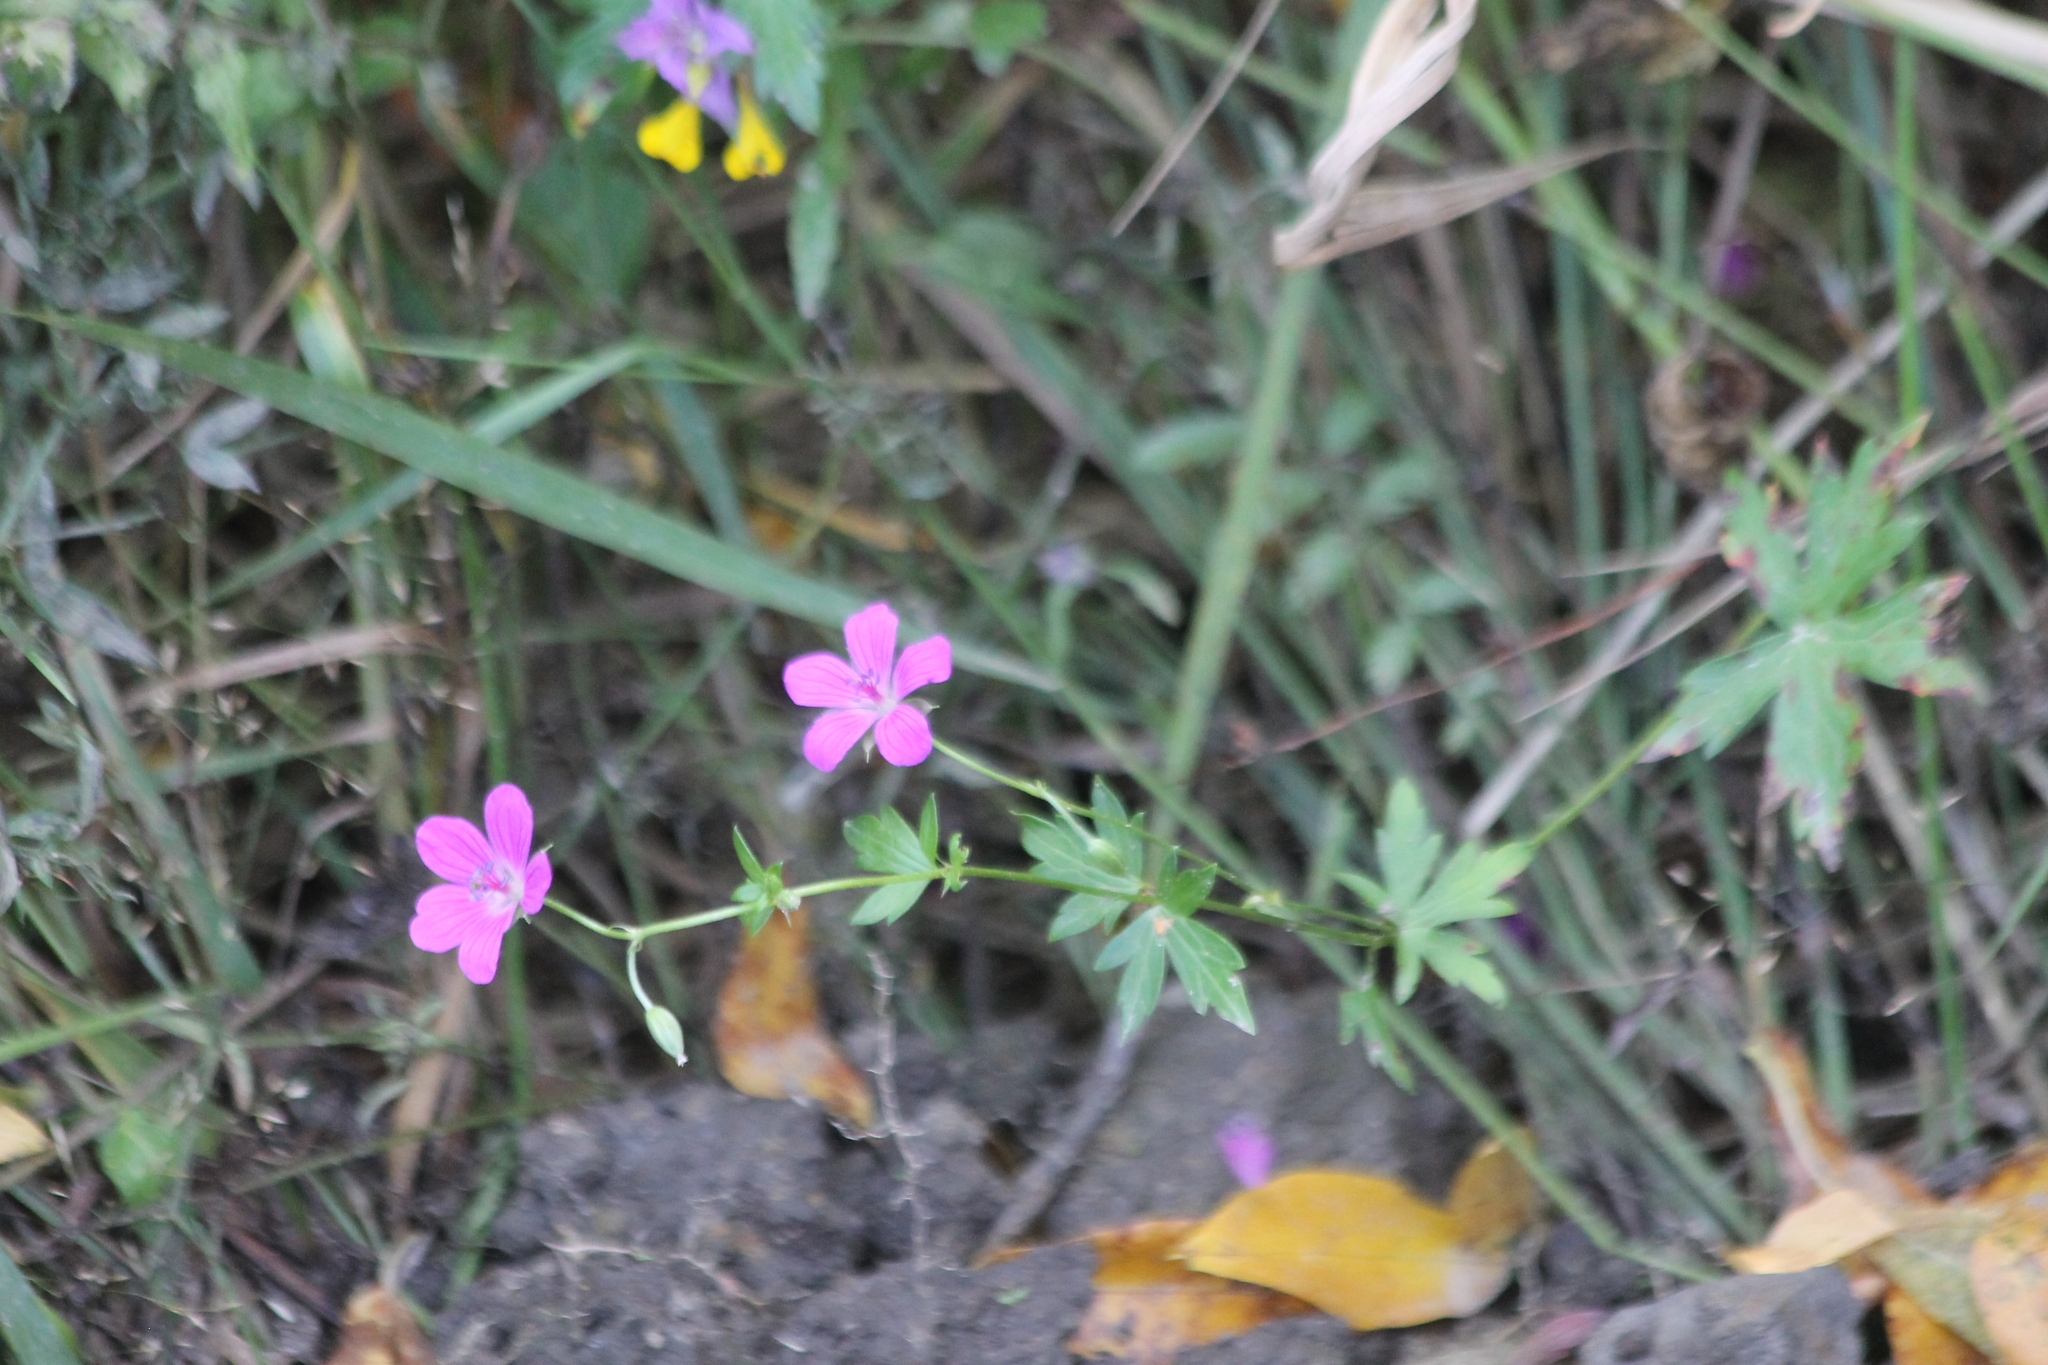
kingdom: Plantae
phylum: Tracheophyta
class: Magnoliopsida
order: Geraniales
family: Geraniaceae
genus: Geranium
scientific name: Geranium palustre
